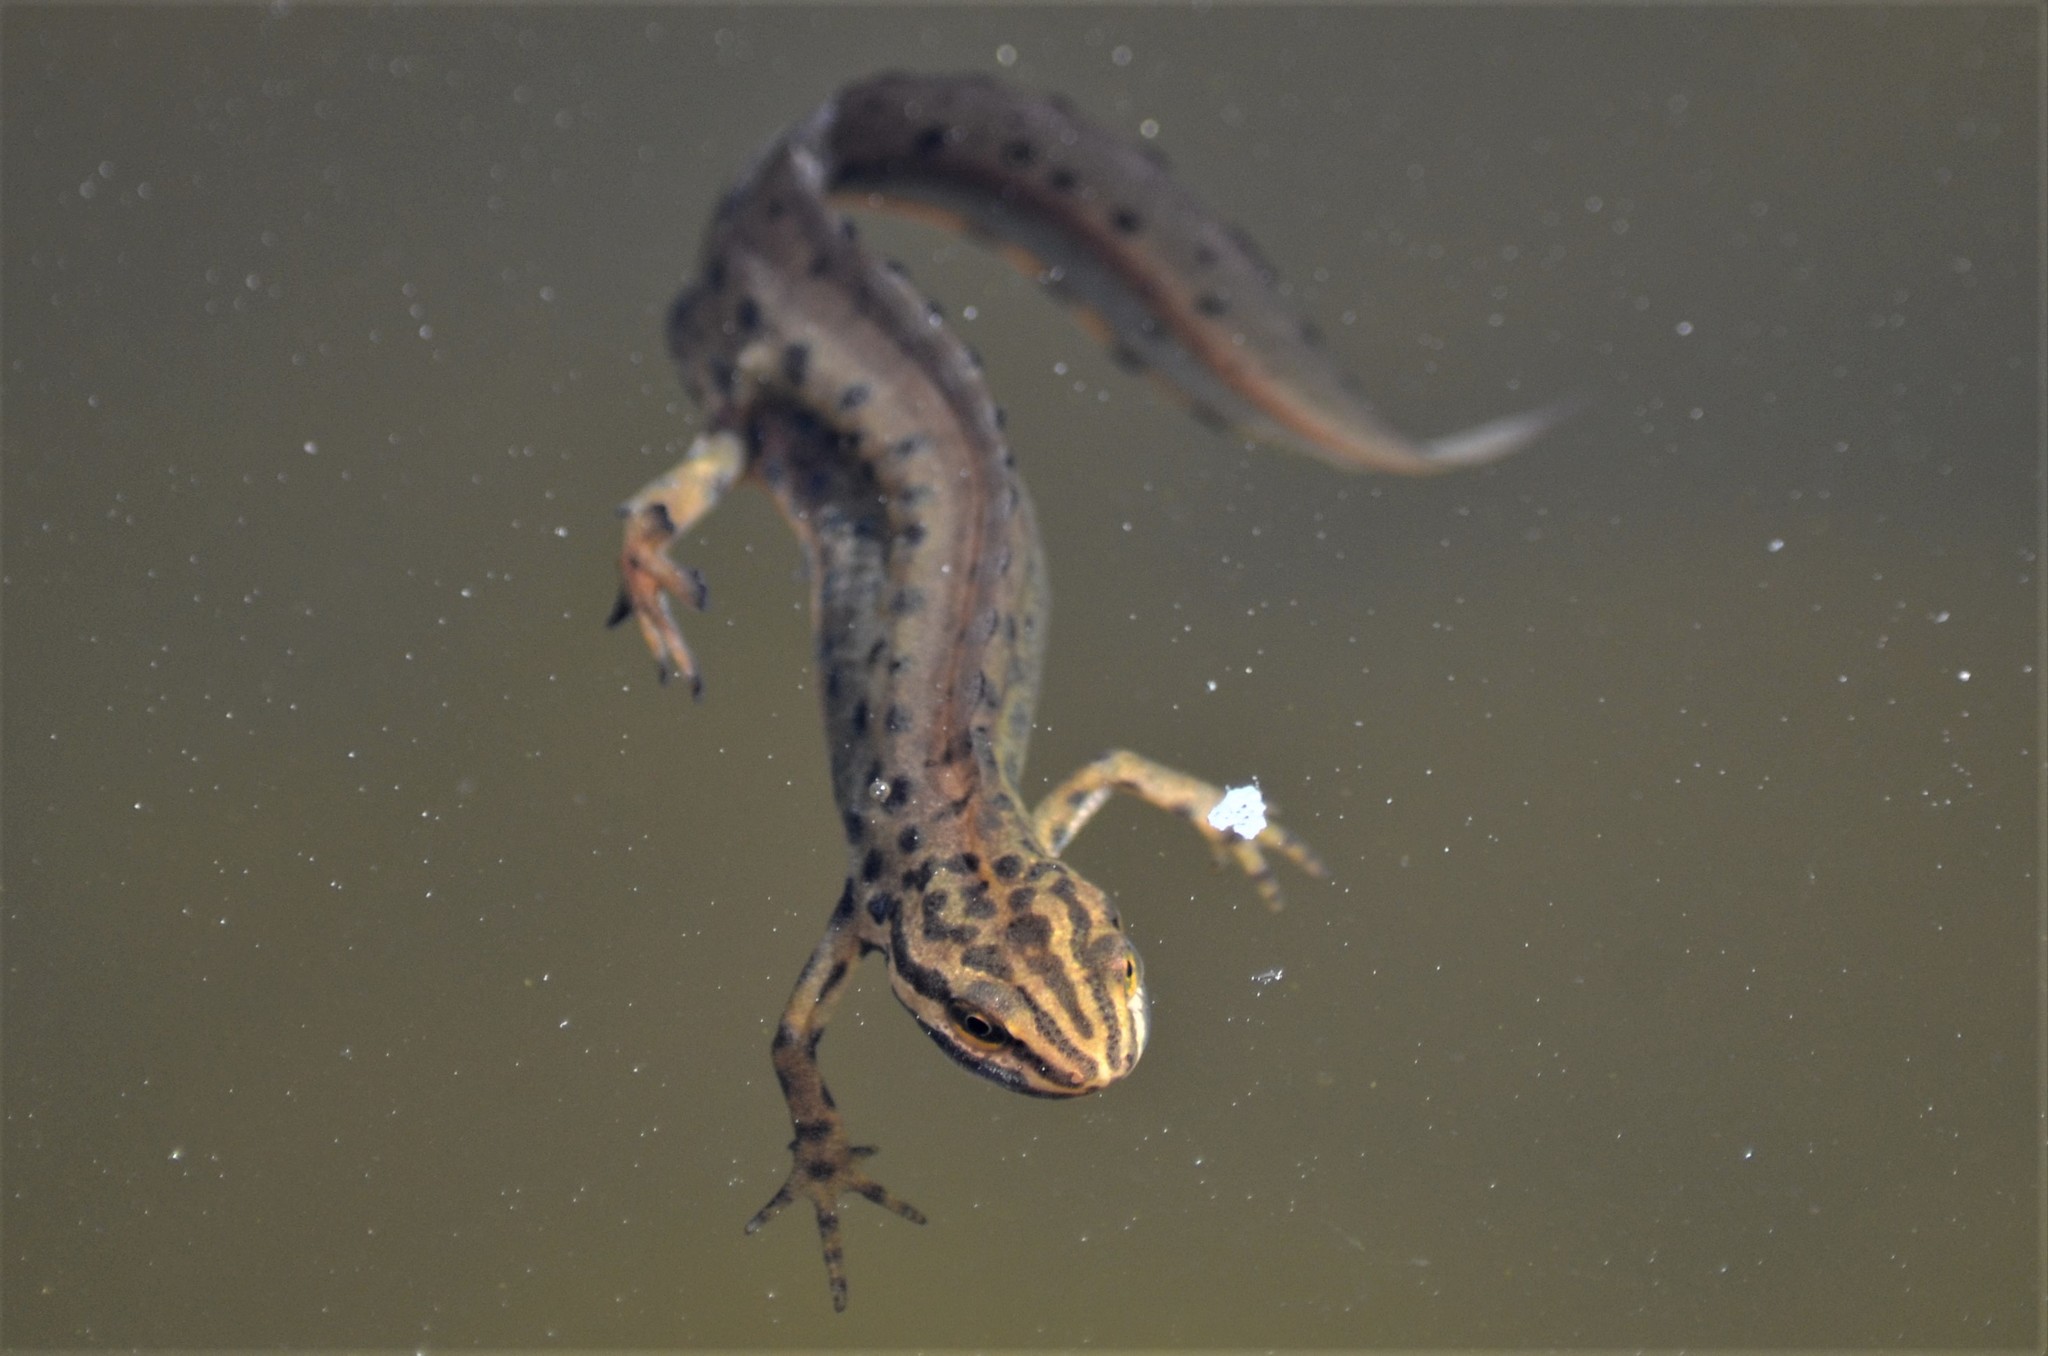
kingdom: Animalia
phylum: Chordata
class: Amphibia
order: Caudata
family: Salamandridae
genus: Lissotriton
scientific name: Lissotriton vulgaris
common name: Smooth newt
